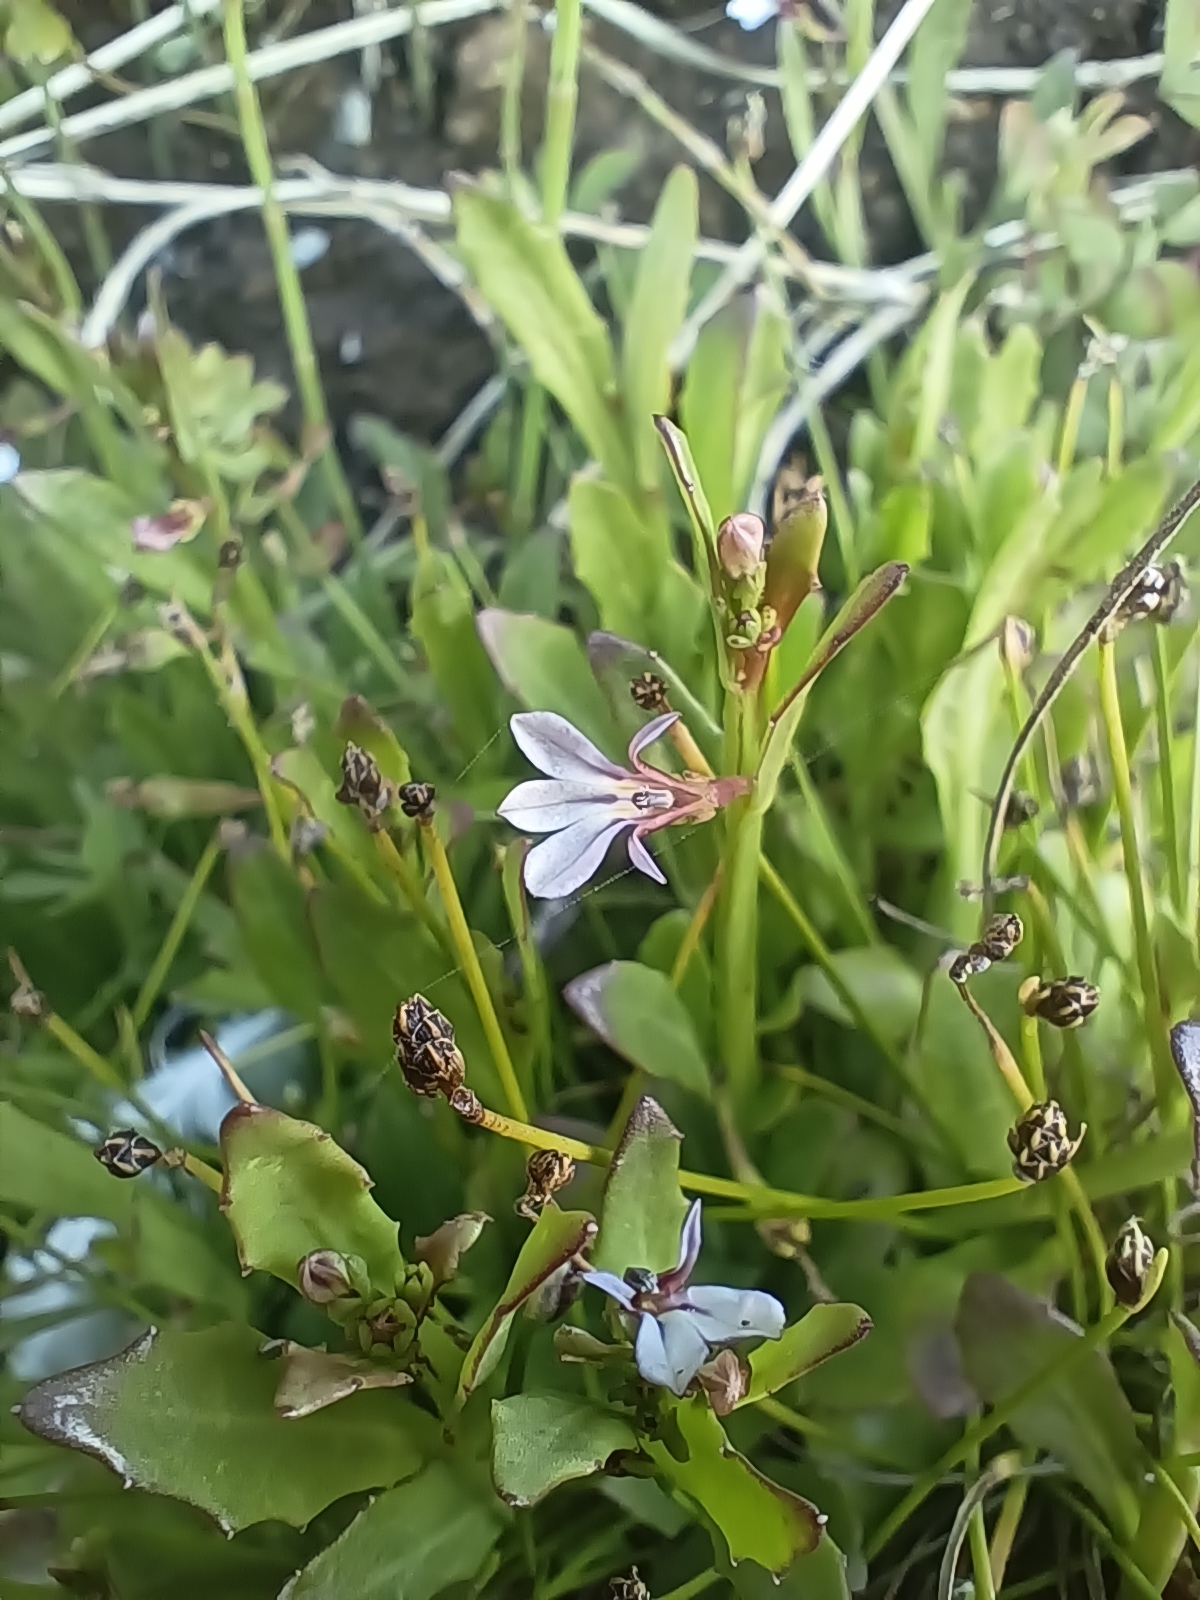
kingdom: Plantae
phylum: Tracheophyta
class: Magnoliopsida
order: Asterales
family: Campanulaceae
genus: Lobelia
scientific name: Lobelia anceps
